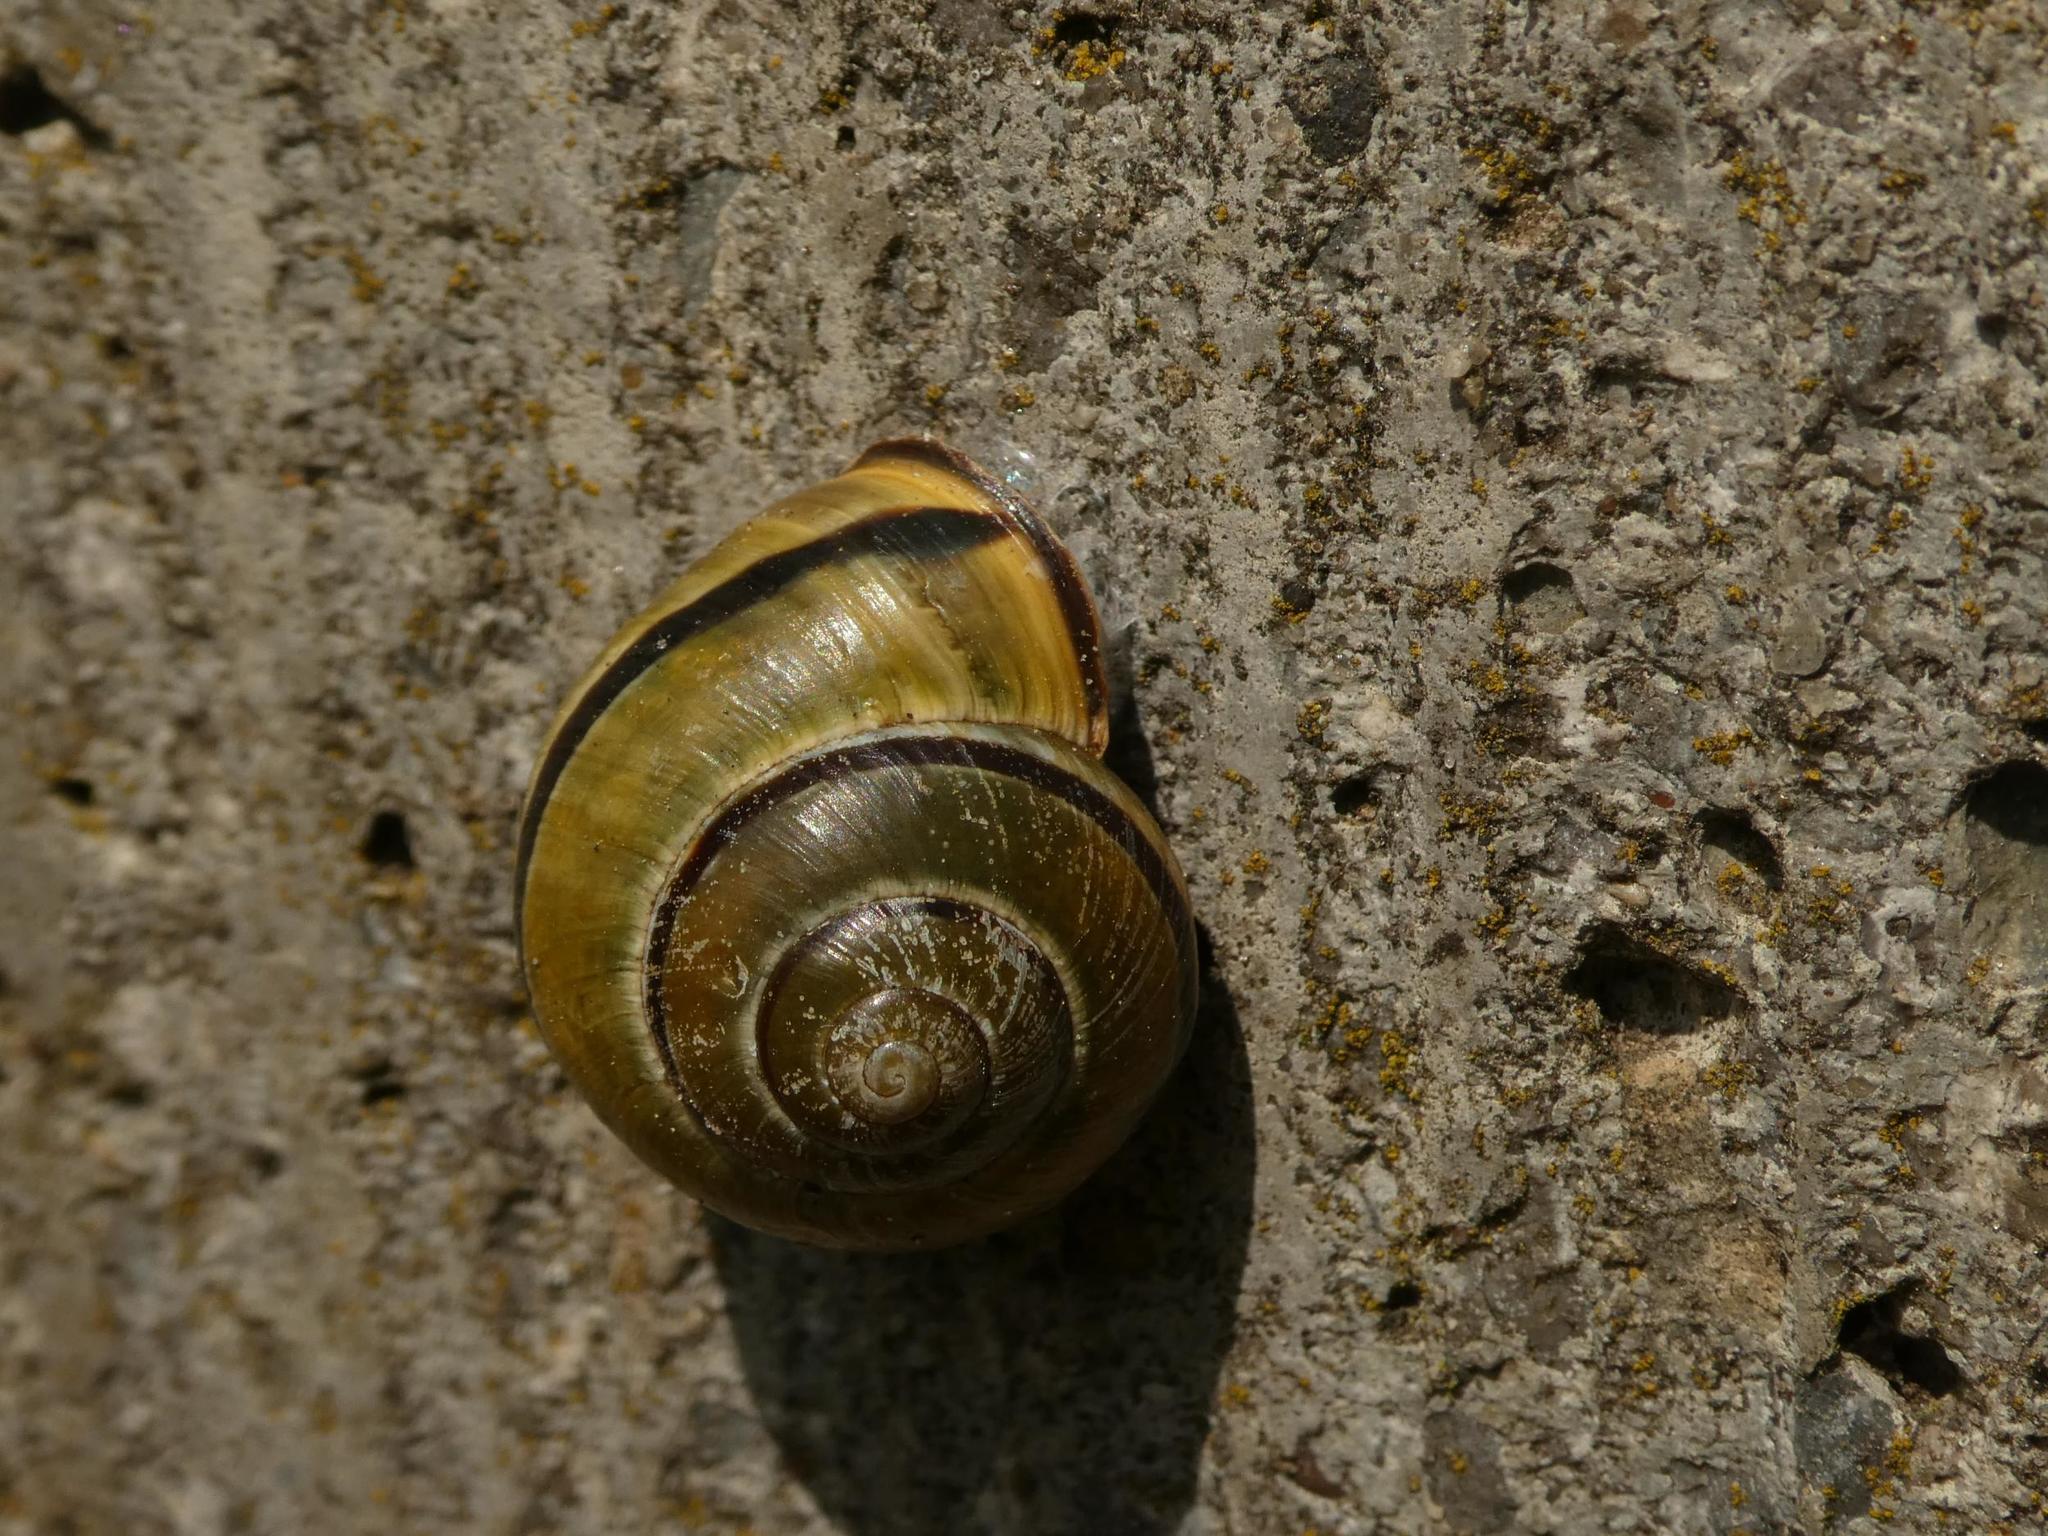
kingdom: Animalia
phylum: Mollusca
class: Gastropoda
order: Stylommatophora
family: Helicidae
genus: Cepaea
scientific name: Cepaea nemoralis
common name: Grovesnail
